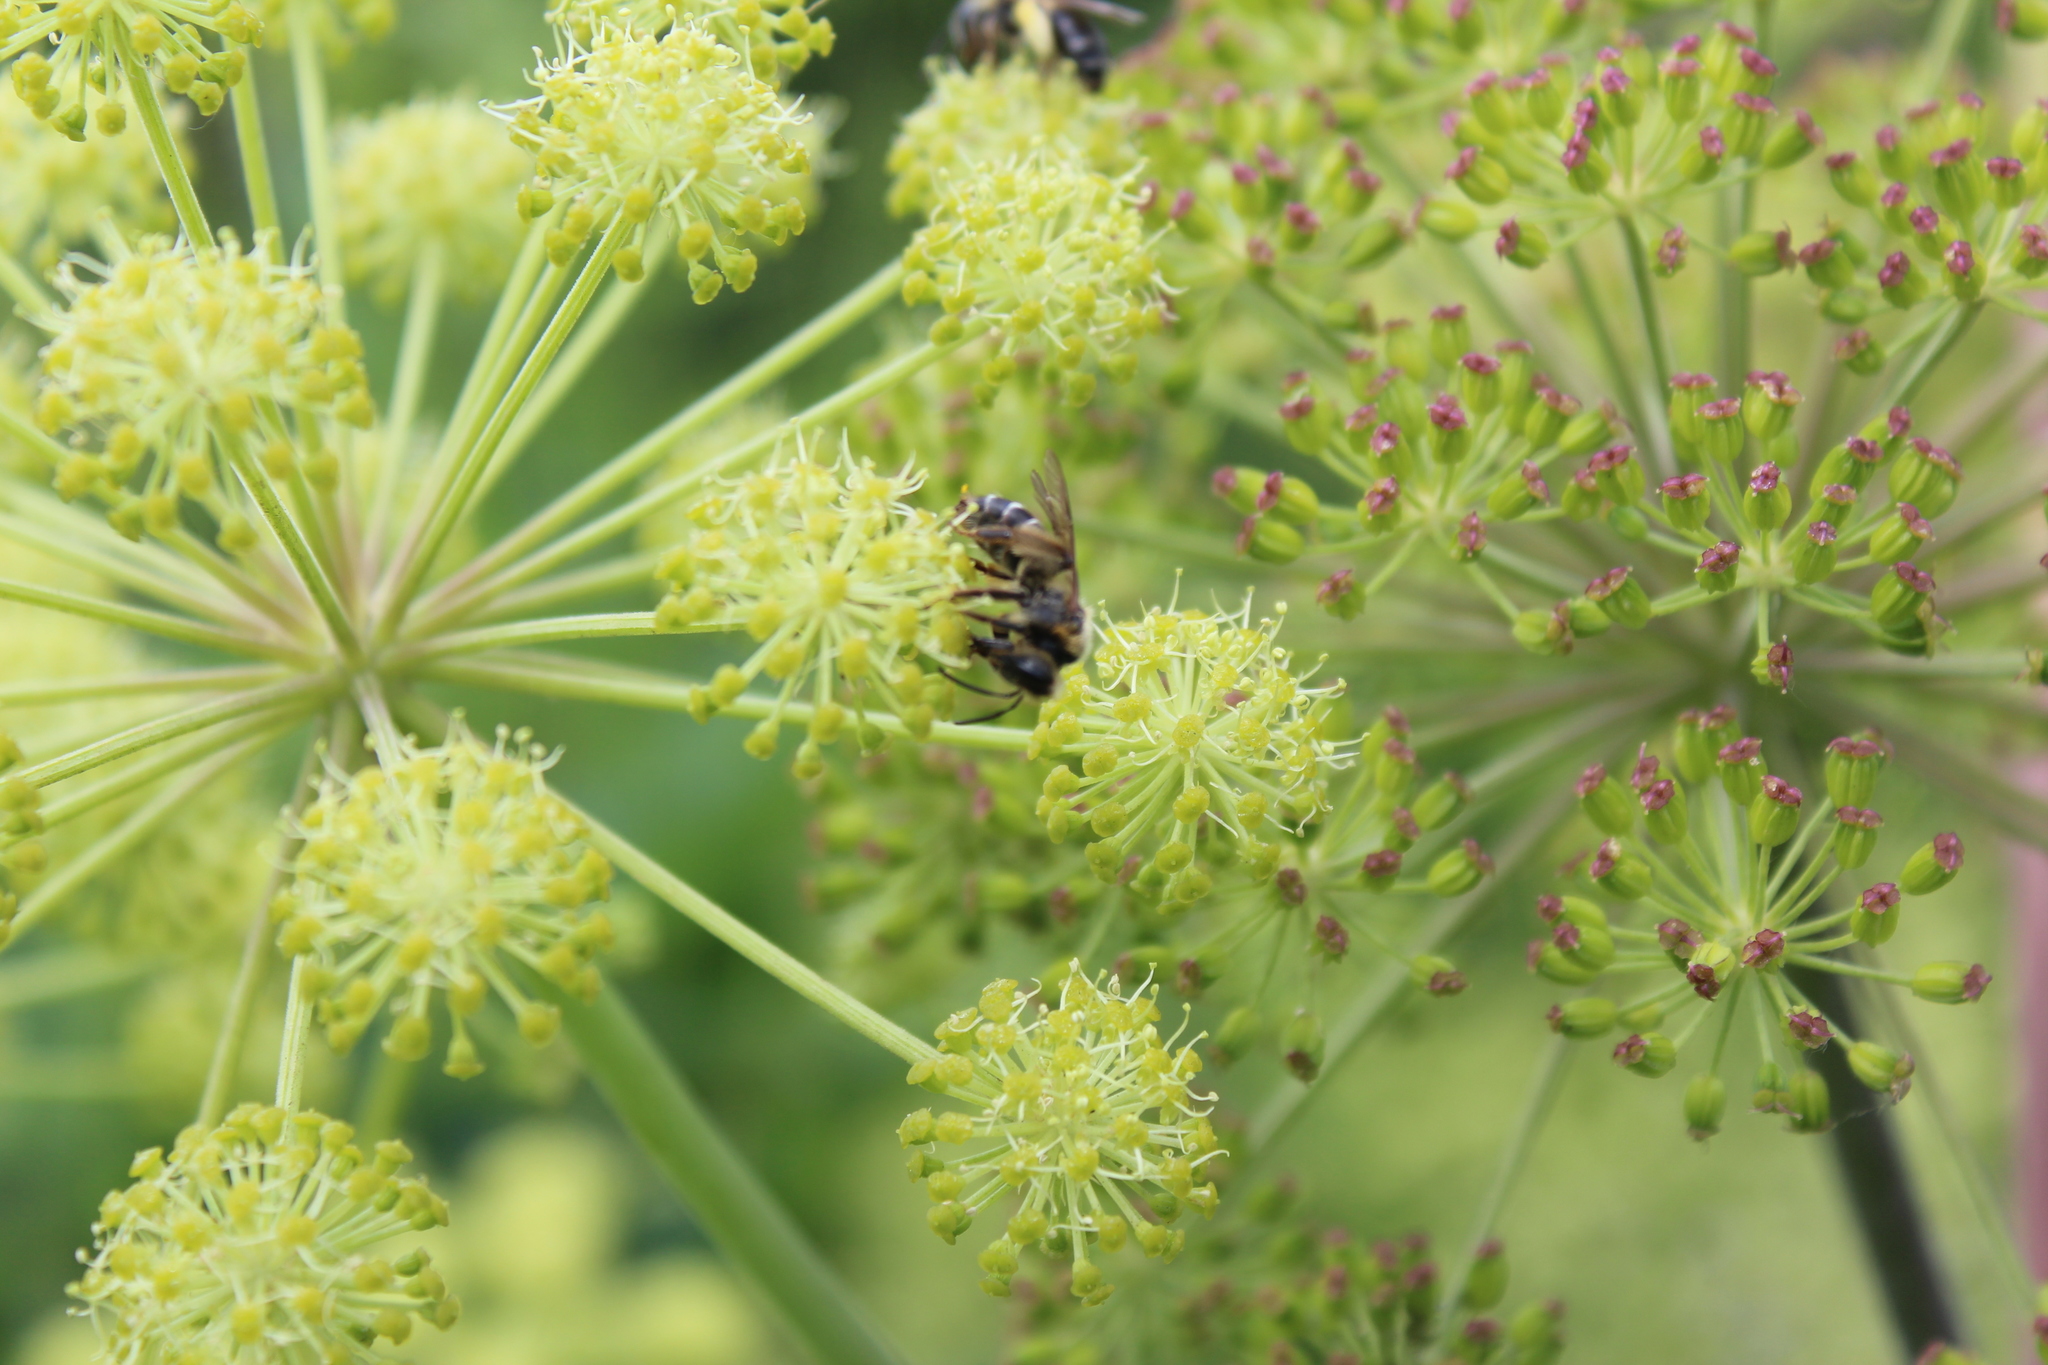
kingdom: Animalia
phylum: Arthropoda
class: Insecta
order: Hymenoptera
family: Andrenidae
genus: Andrena
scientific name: Andrena proxima
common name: Broad-faced mining bee
